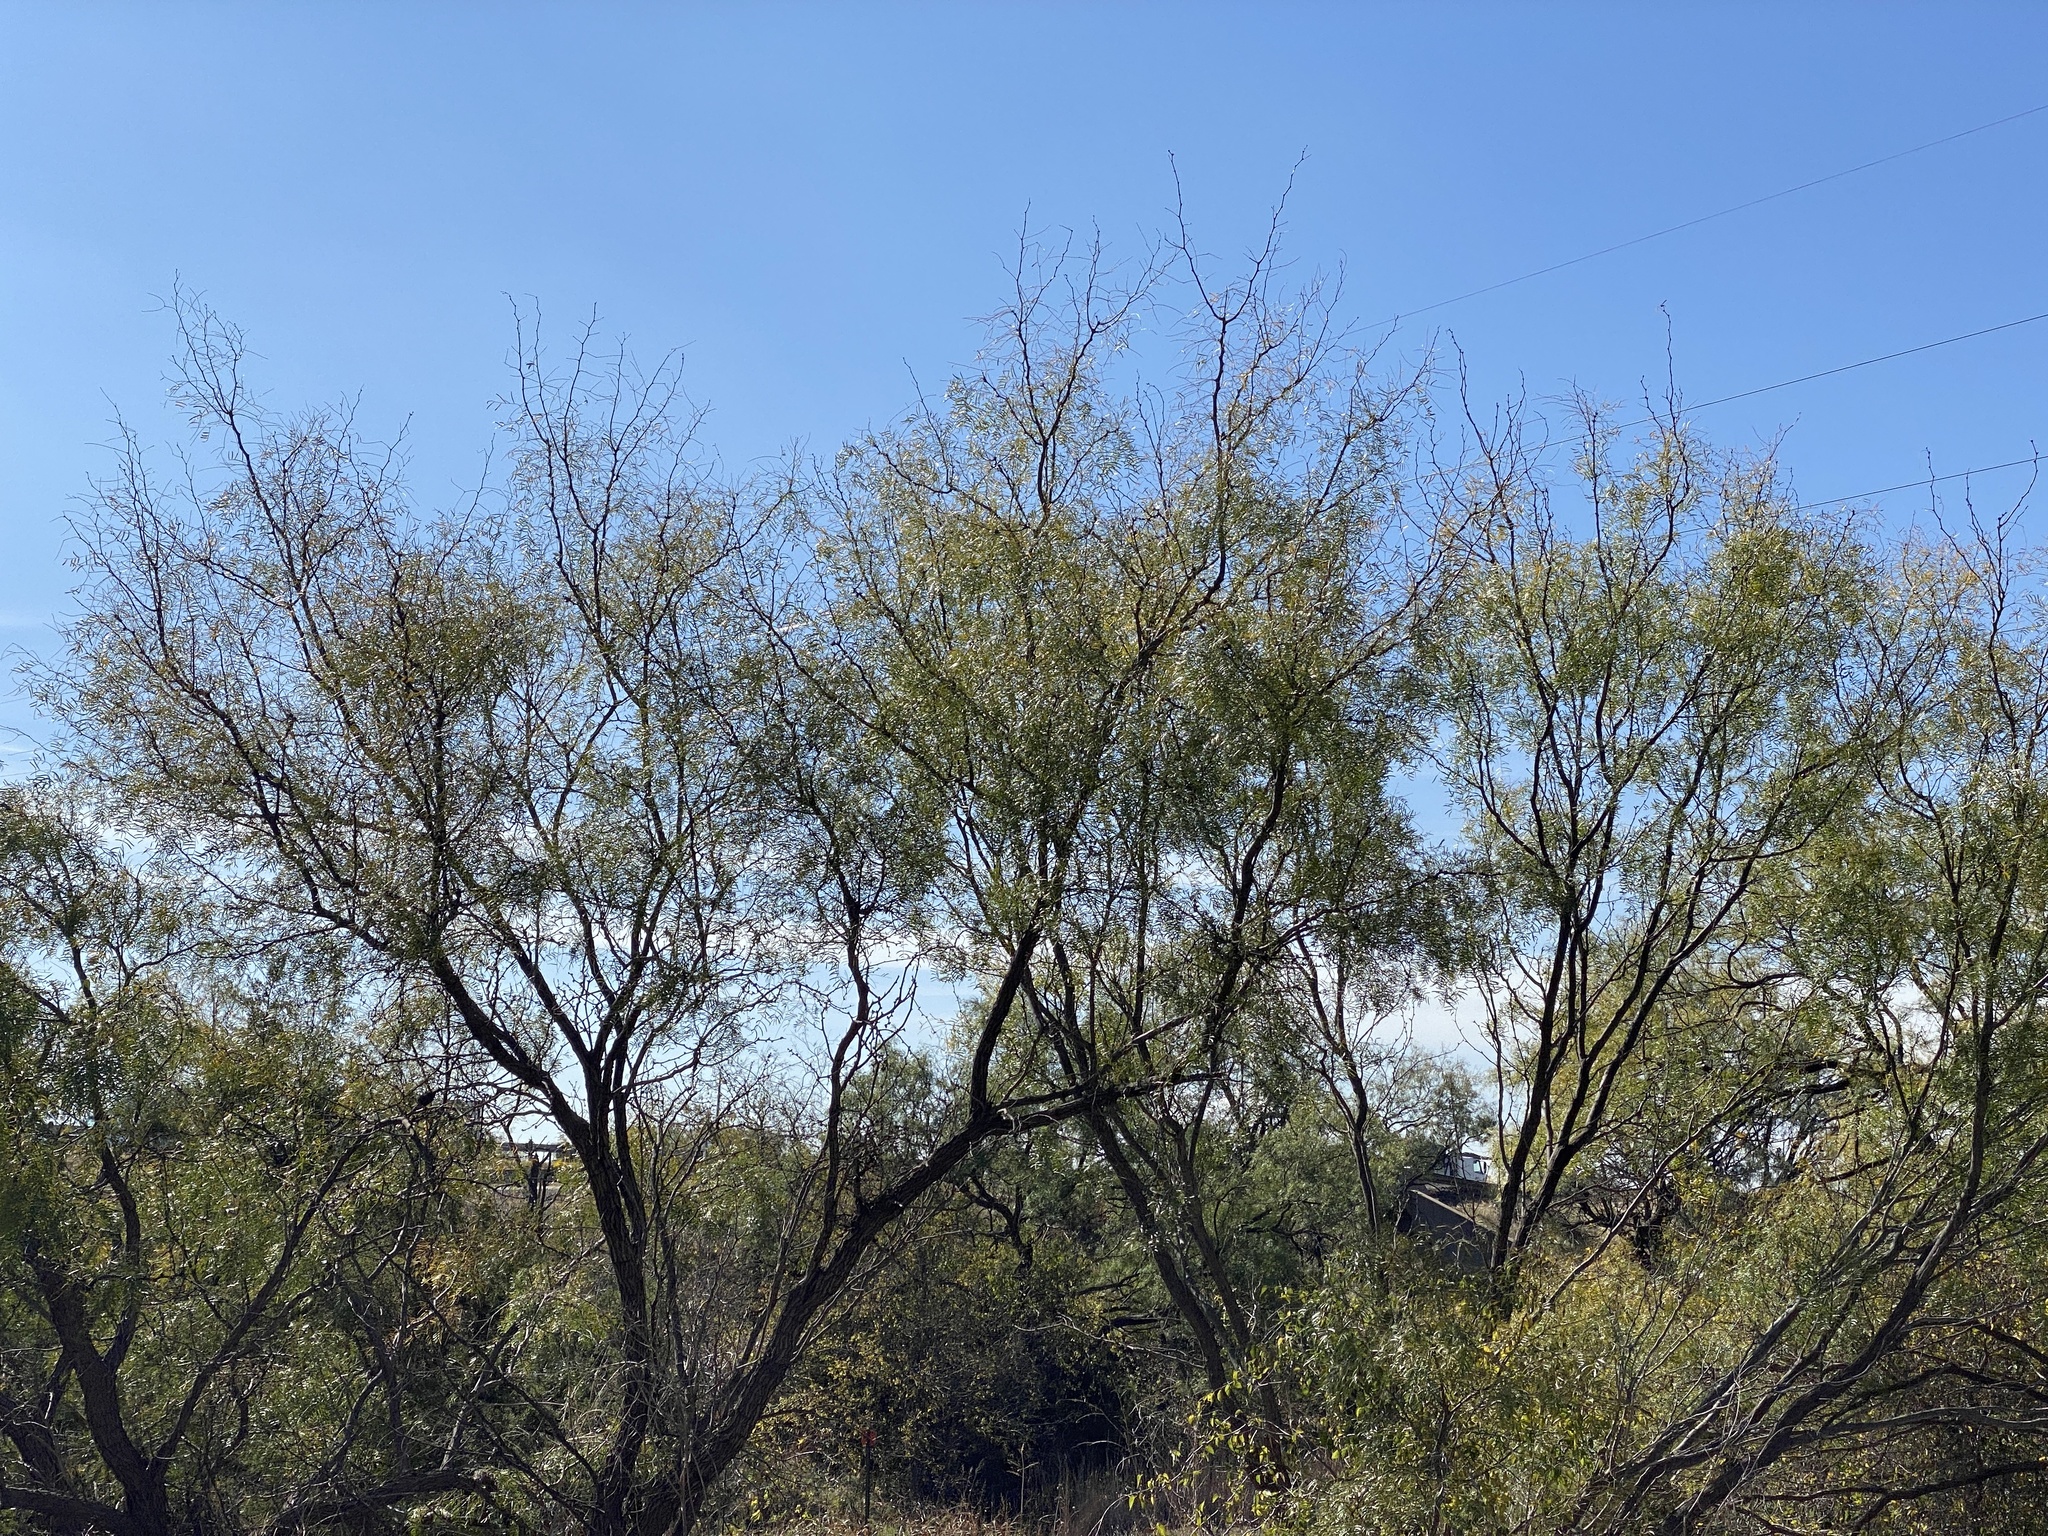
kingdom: Plantae
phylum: Tracheophyta
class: Magnoliopsida
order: Fabales
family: Fabaceae
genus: Prosopis
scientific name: Prosopis glandulosa
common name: Honey mesquite
